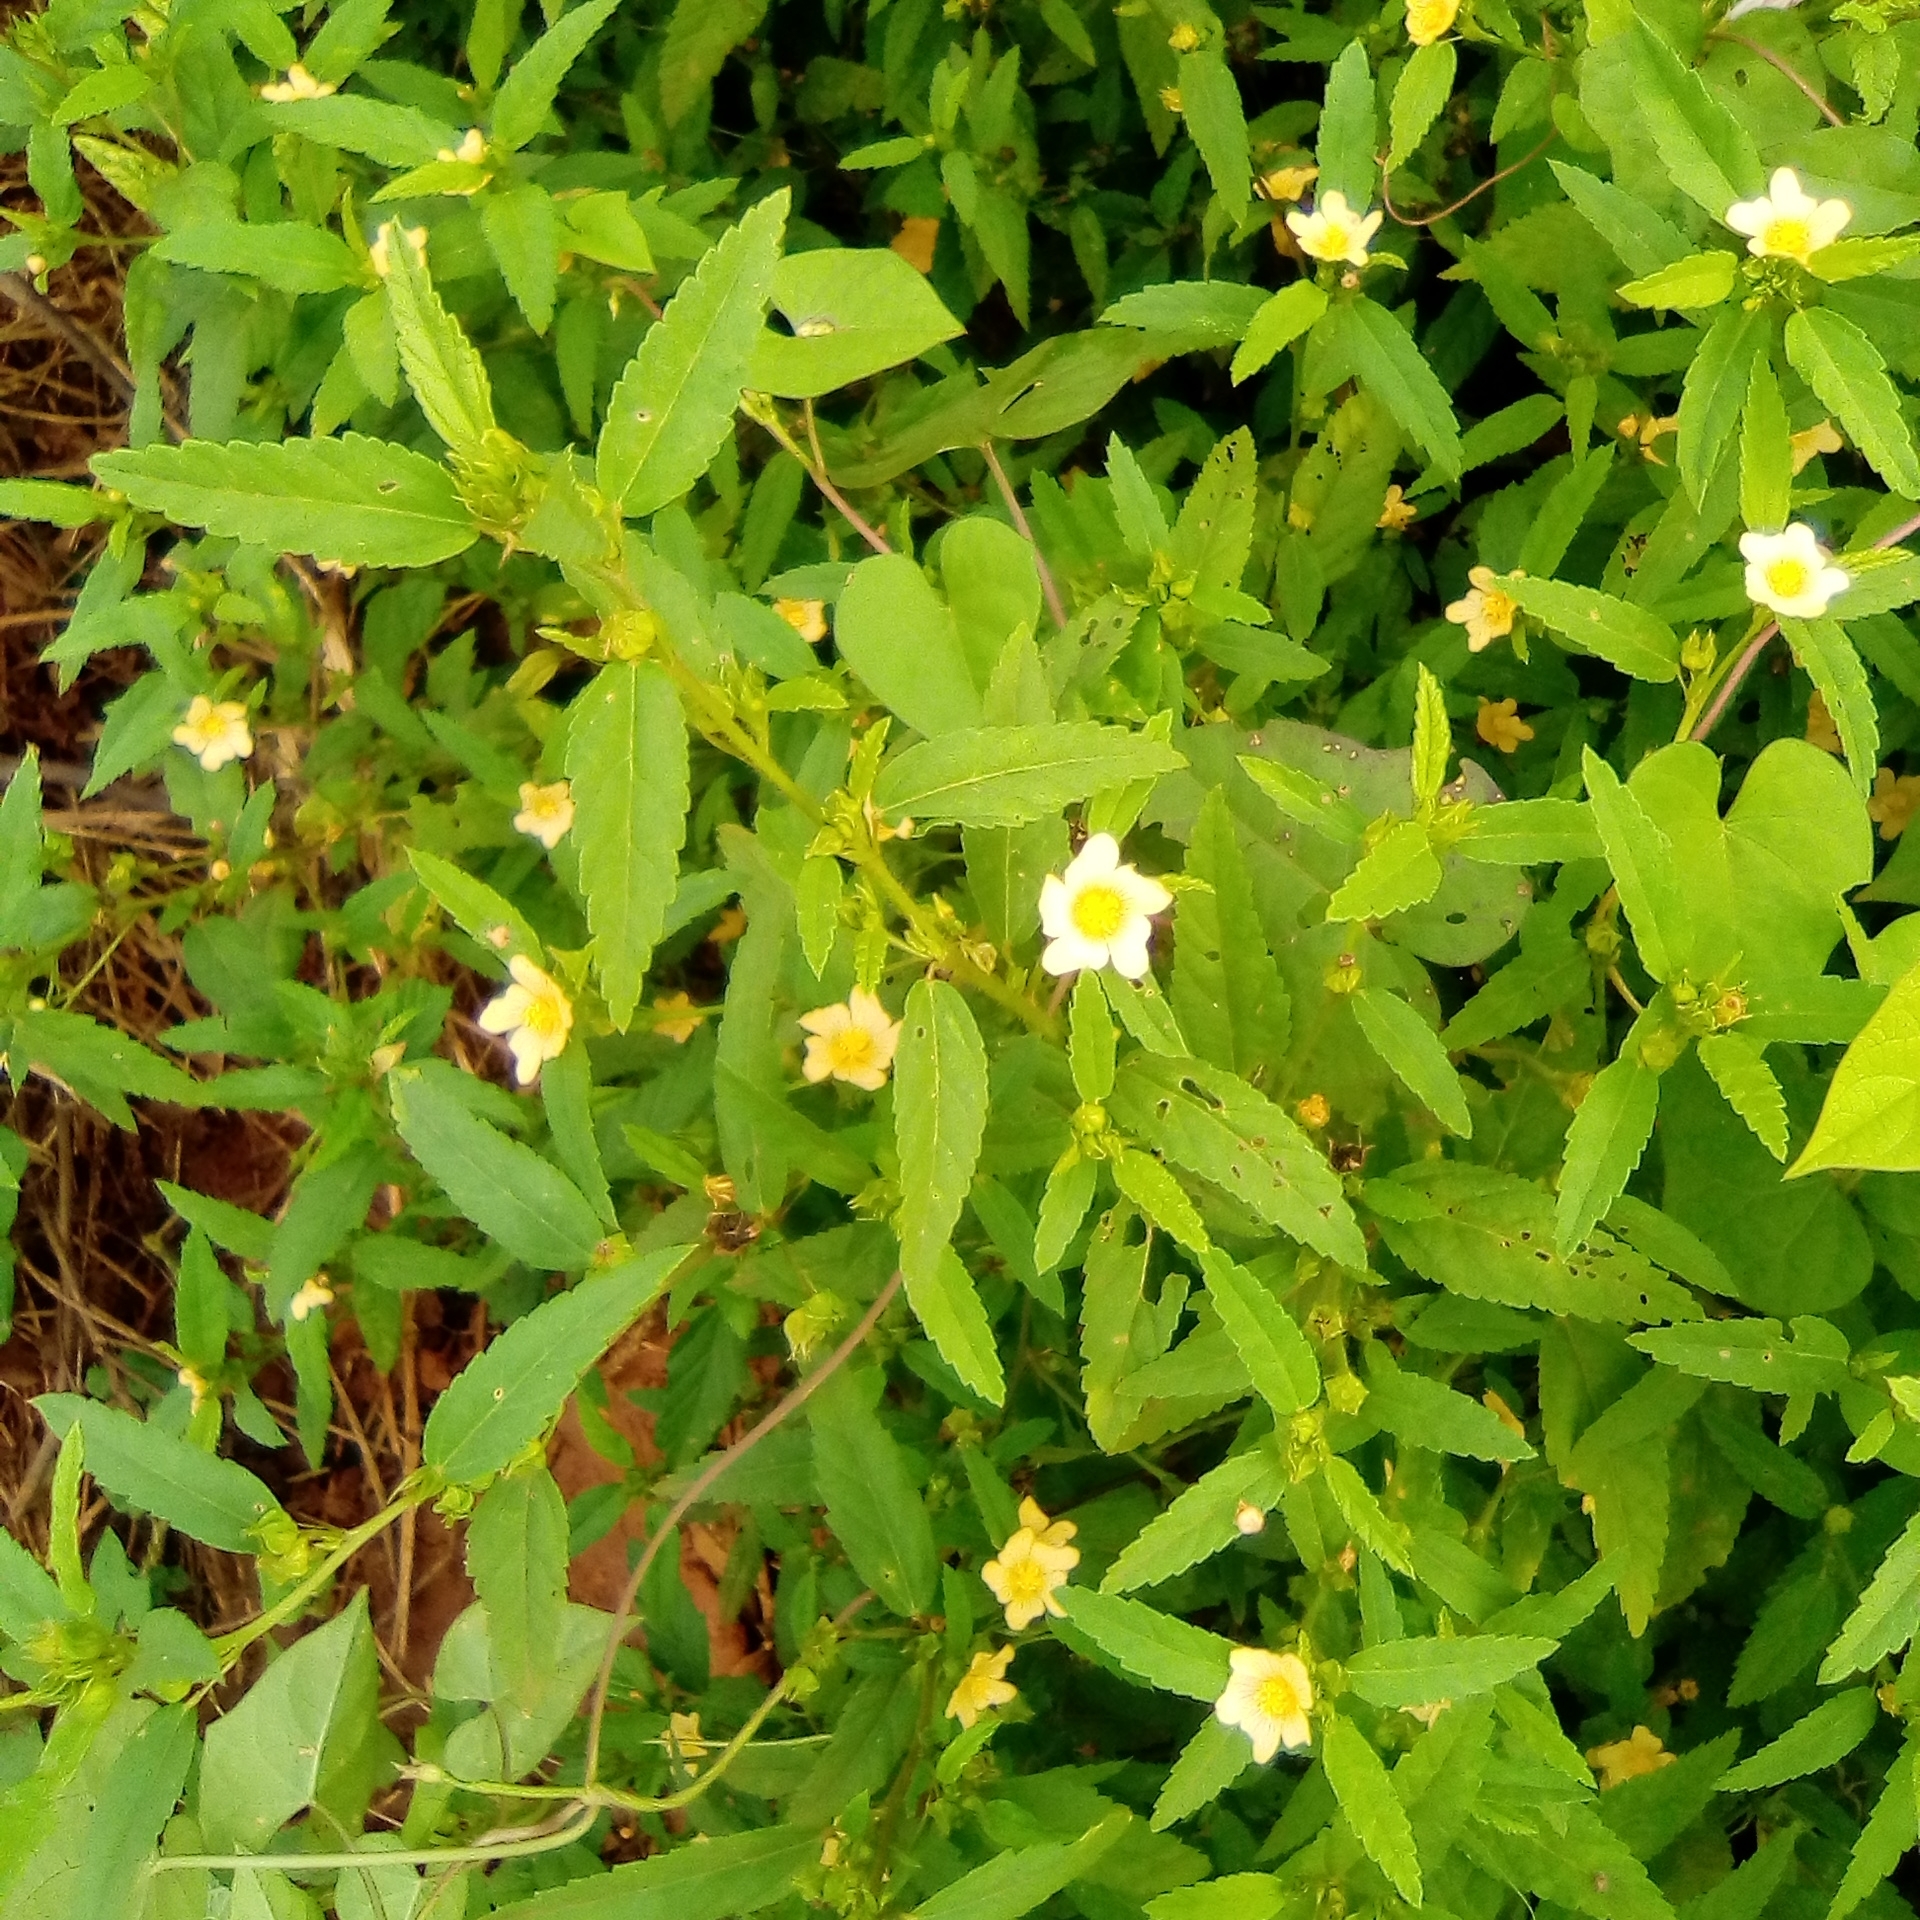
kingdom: Plantae
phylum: Tracheophyta
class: Magnoliopsida
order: Malvales
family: Malvaceae
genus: Sida
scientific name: Sida acuta
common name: Common wireweed
